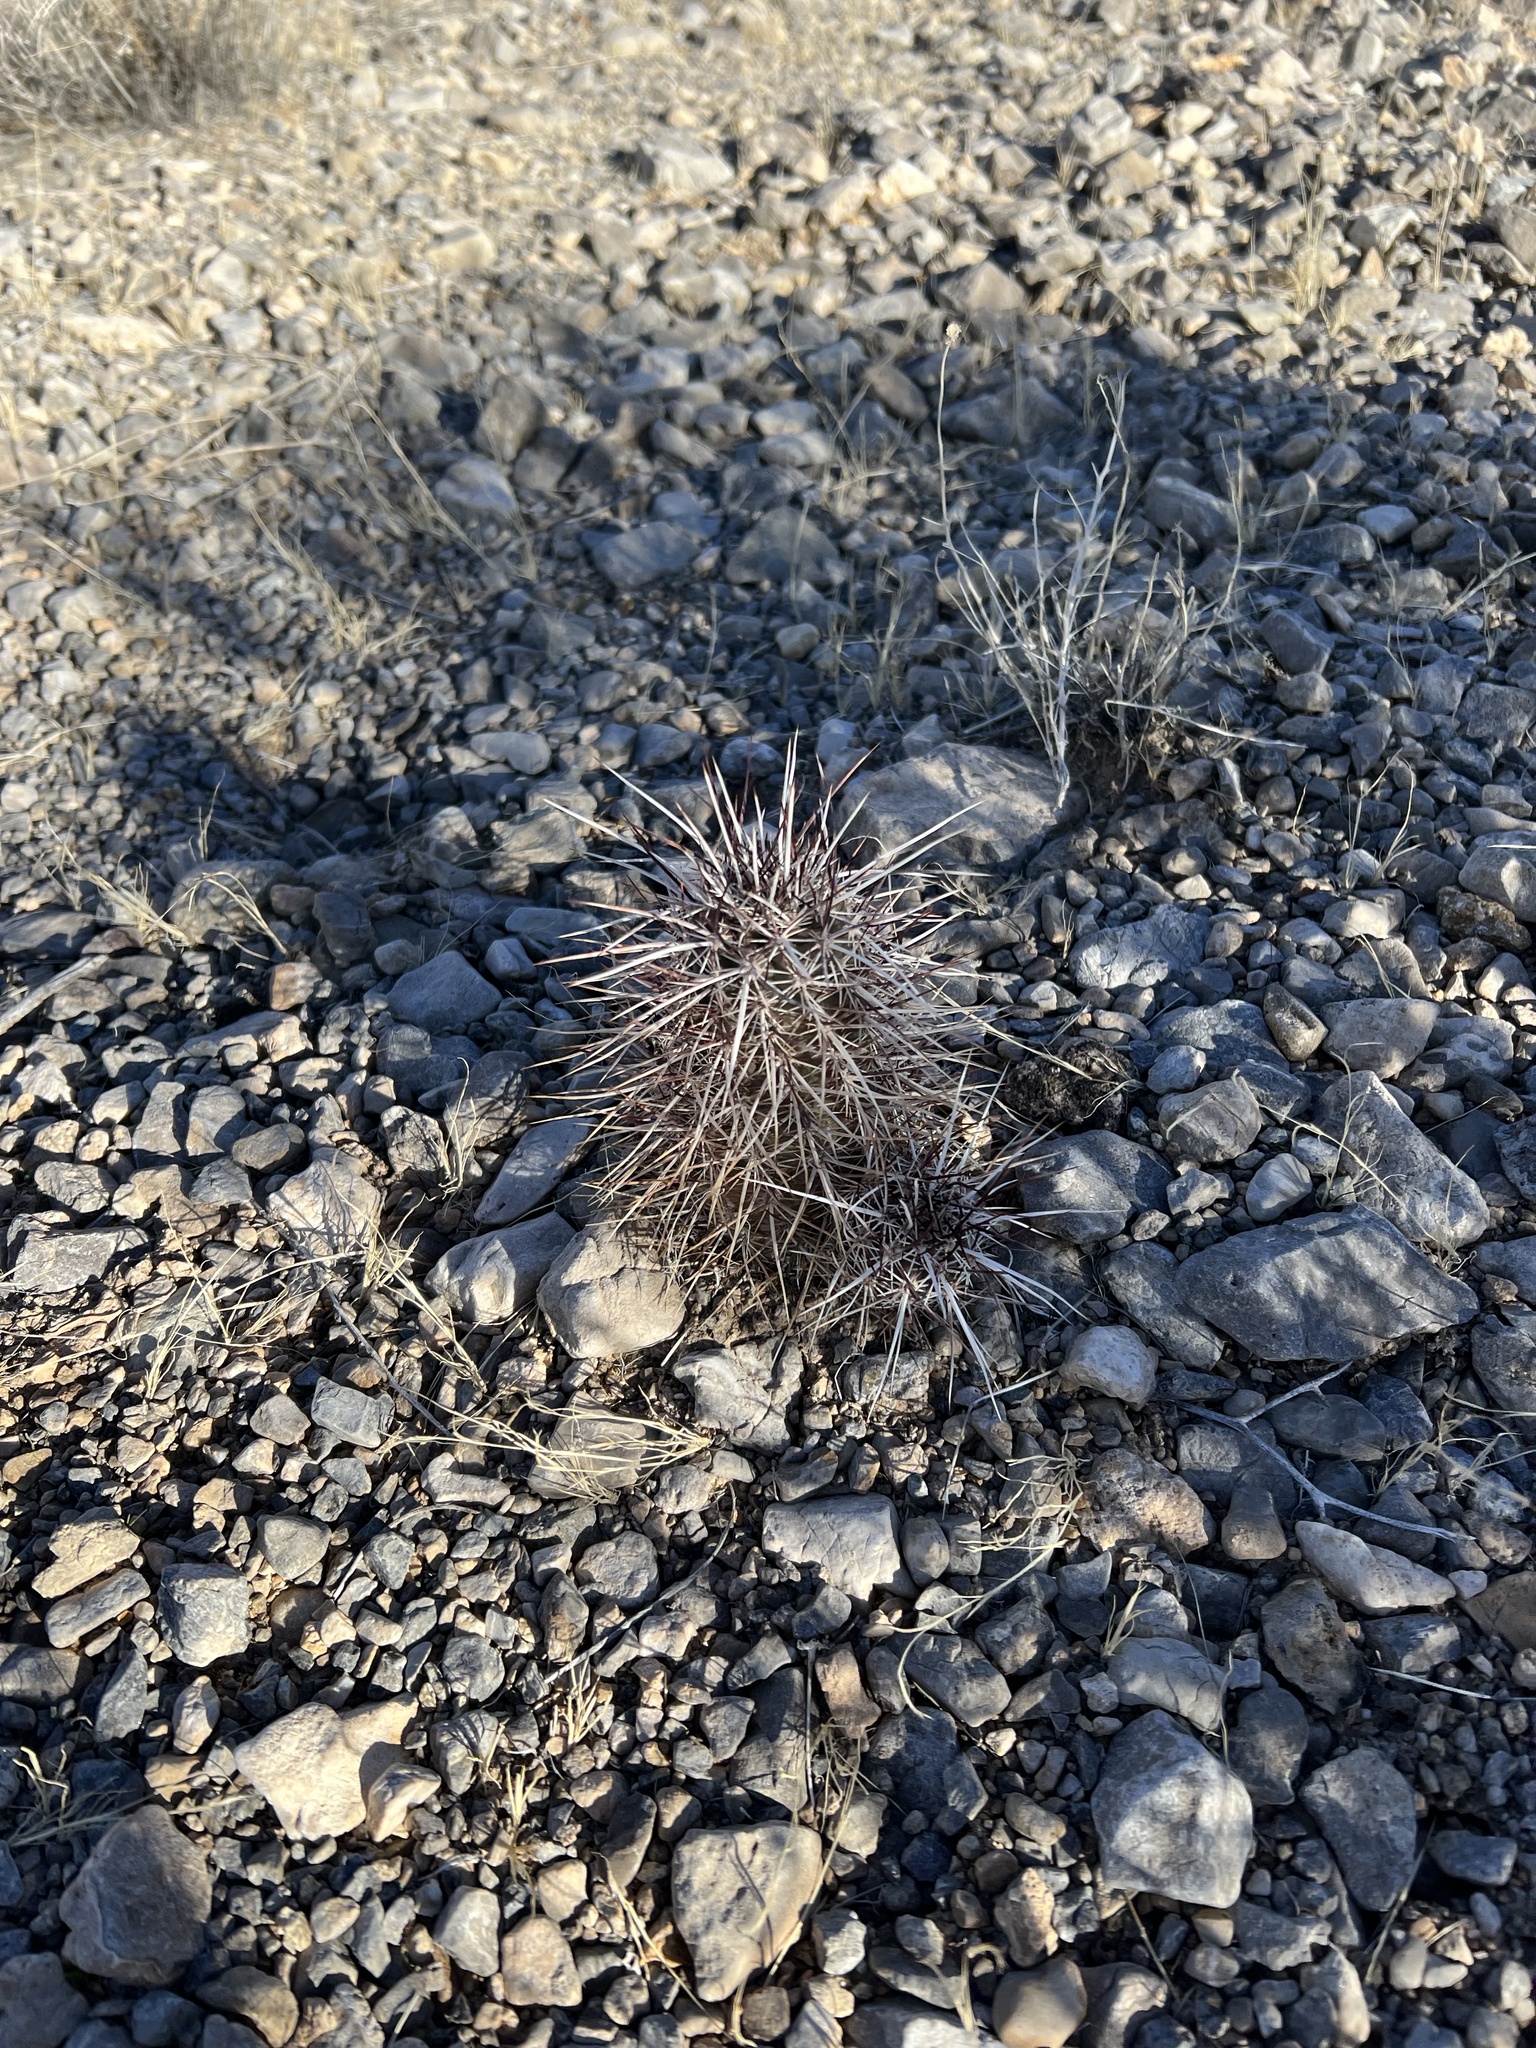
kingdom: Plantae
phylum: Tracheophyta
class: Magnoliopsida
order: Caryophyllales
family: Cactaceae
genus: Echinocereus
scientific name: Echinocereus engelmannii
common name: Engelmann's hedgehog cactus
